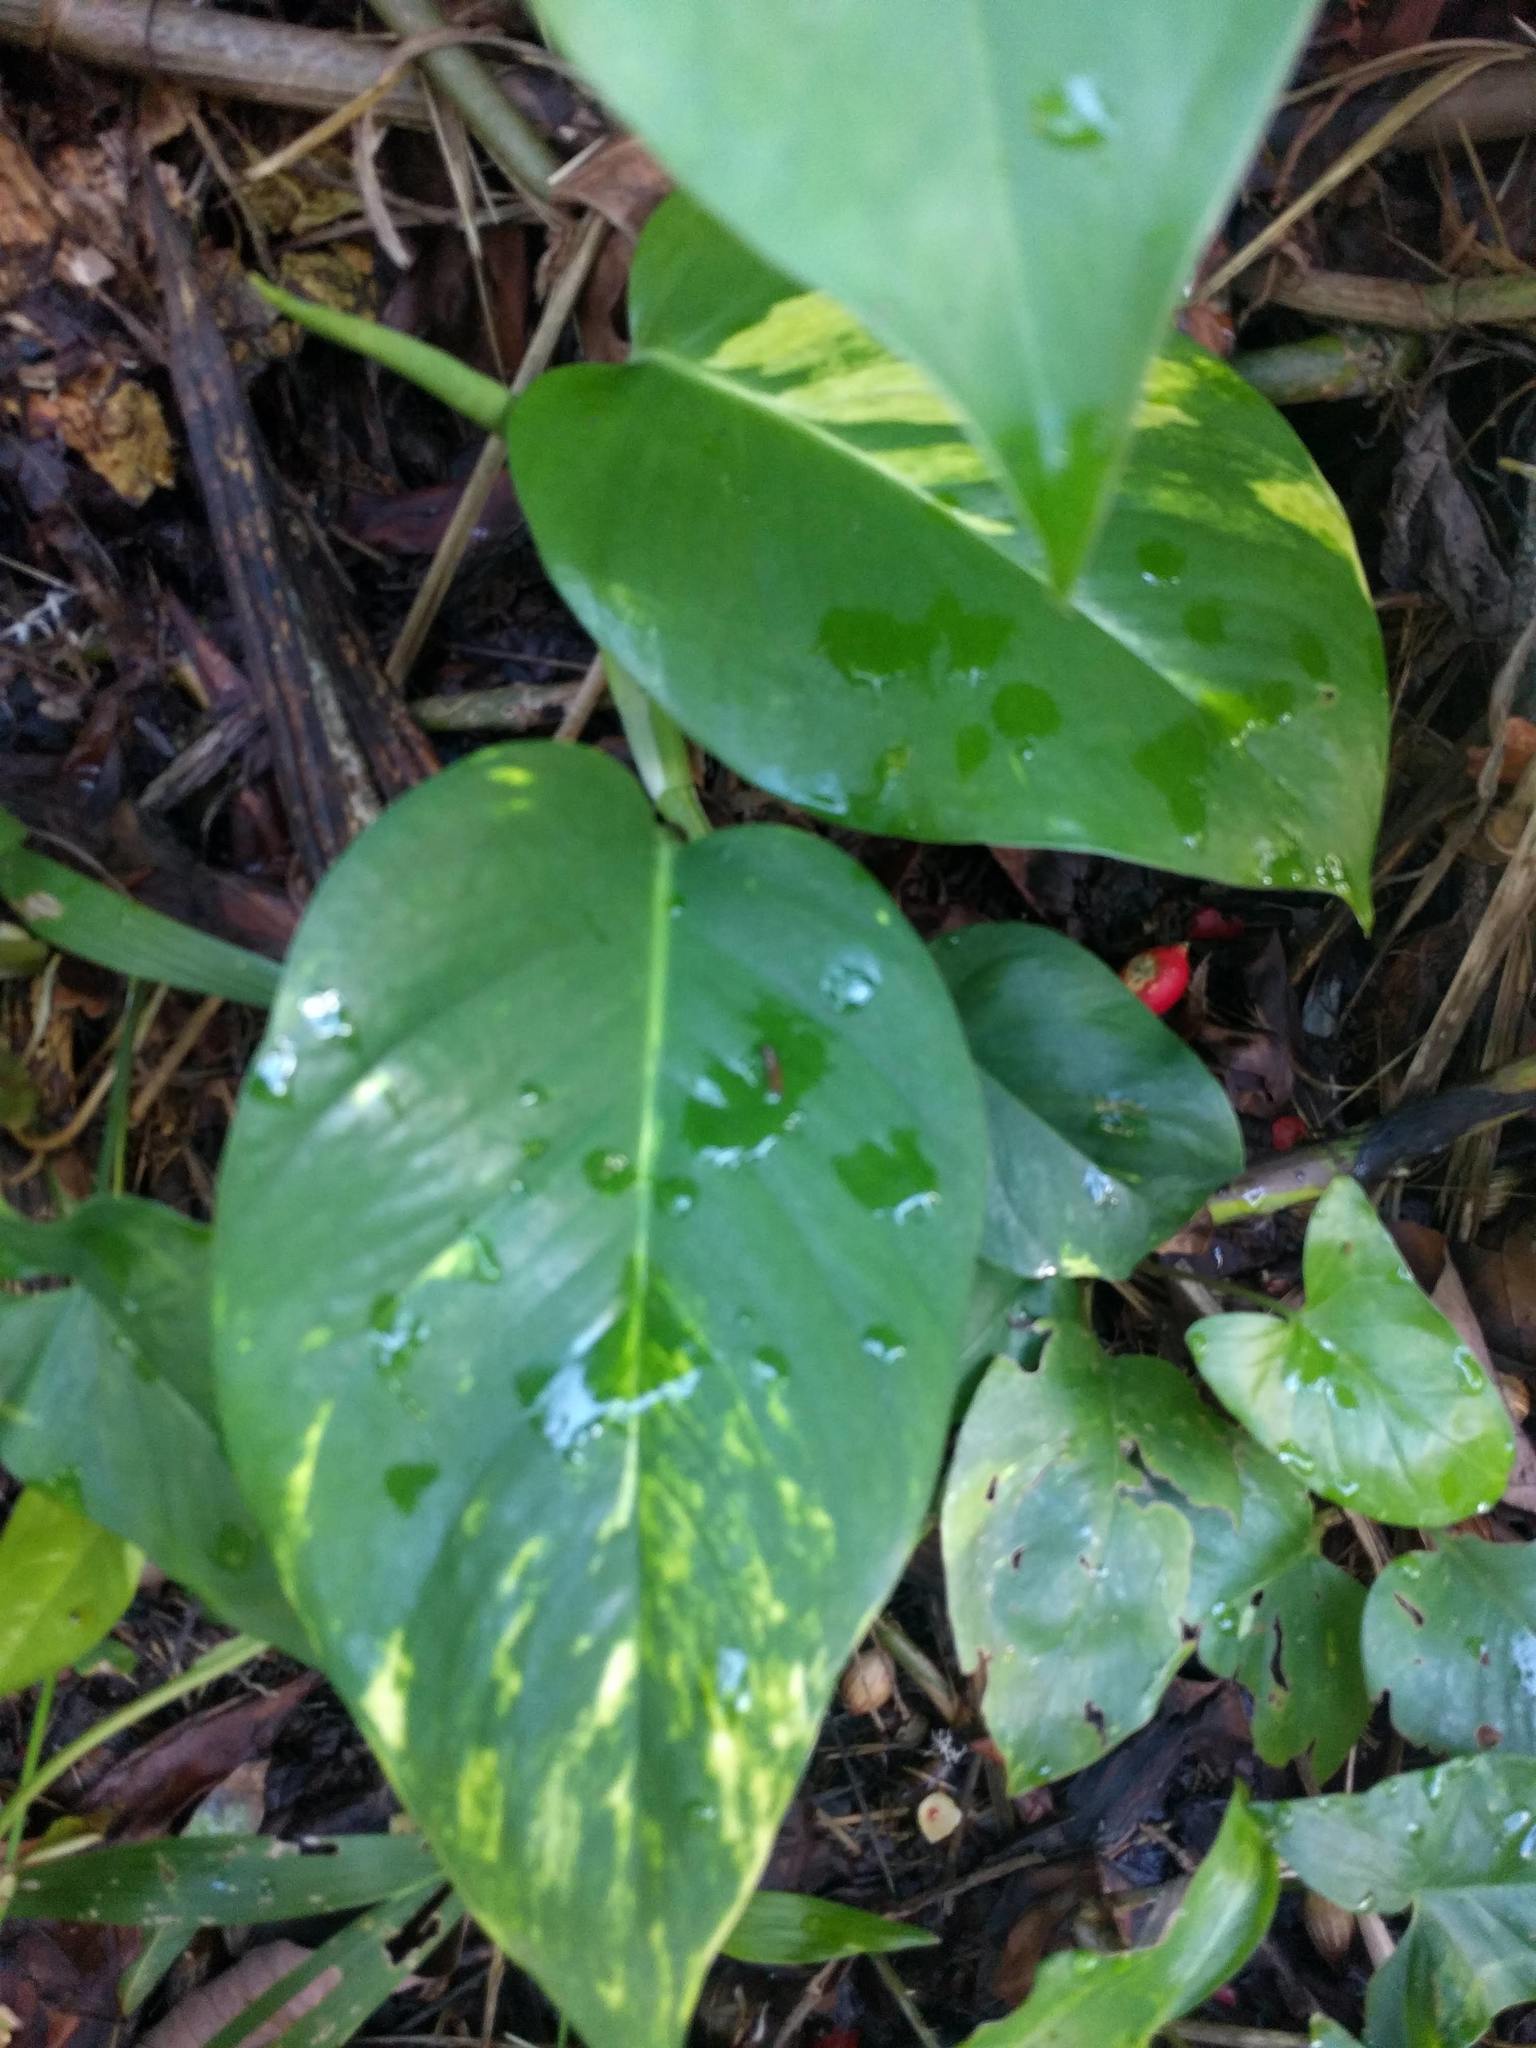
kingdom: Plantae
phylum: Tracheophyta
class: Liliopsida
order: Alismatales
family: Araceae
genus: Epipremnum
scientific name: Epipremnum aureum
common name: Golden hunter's-robe
